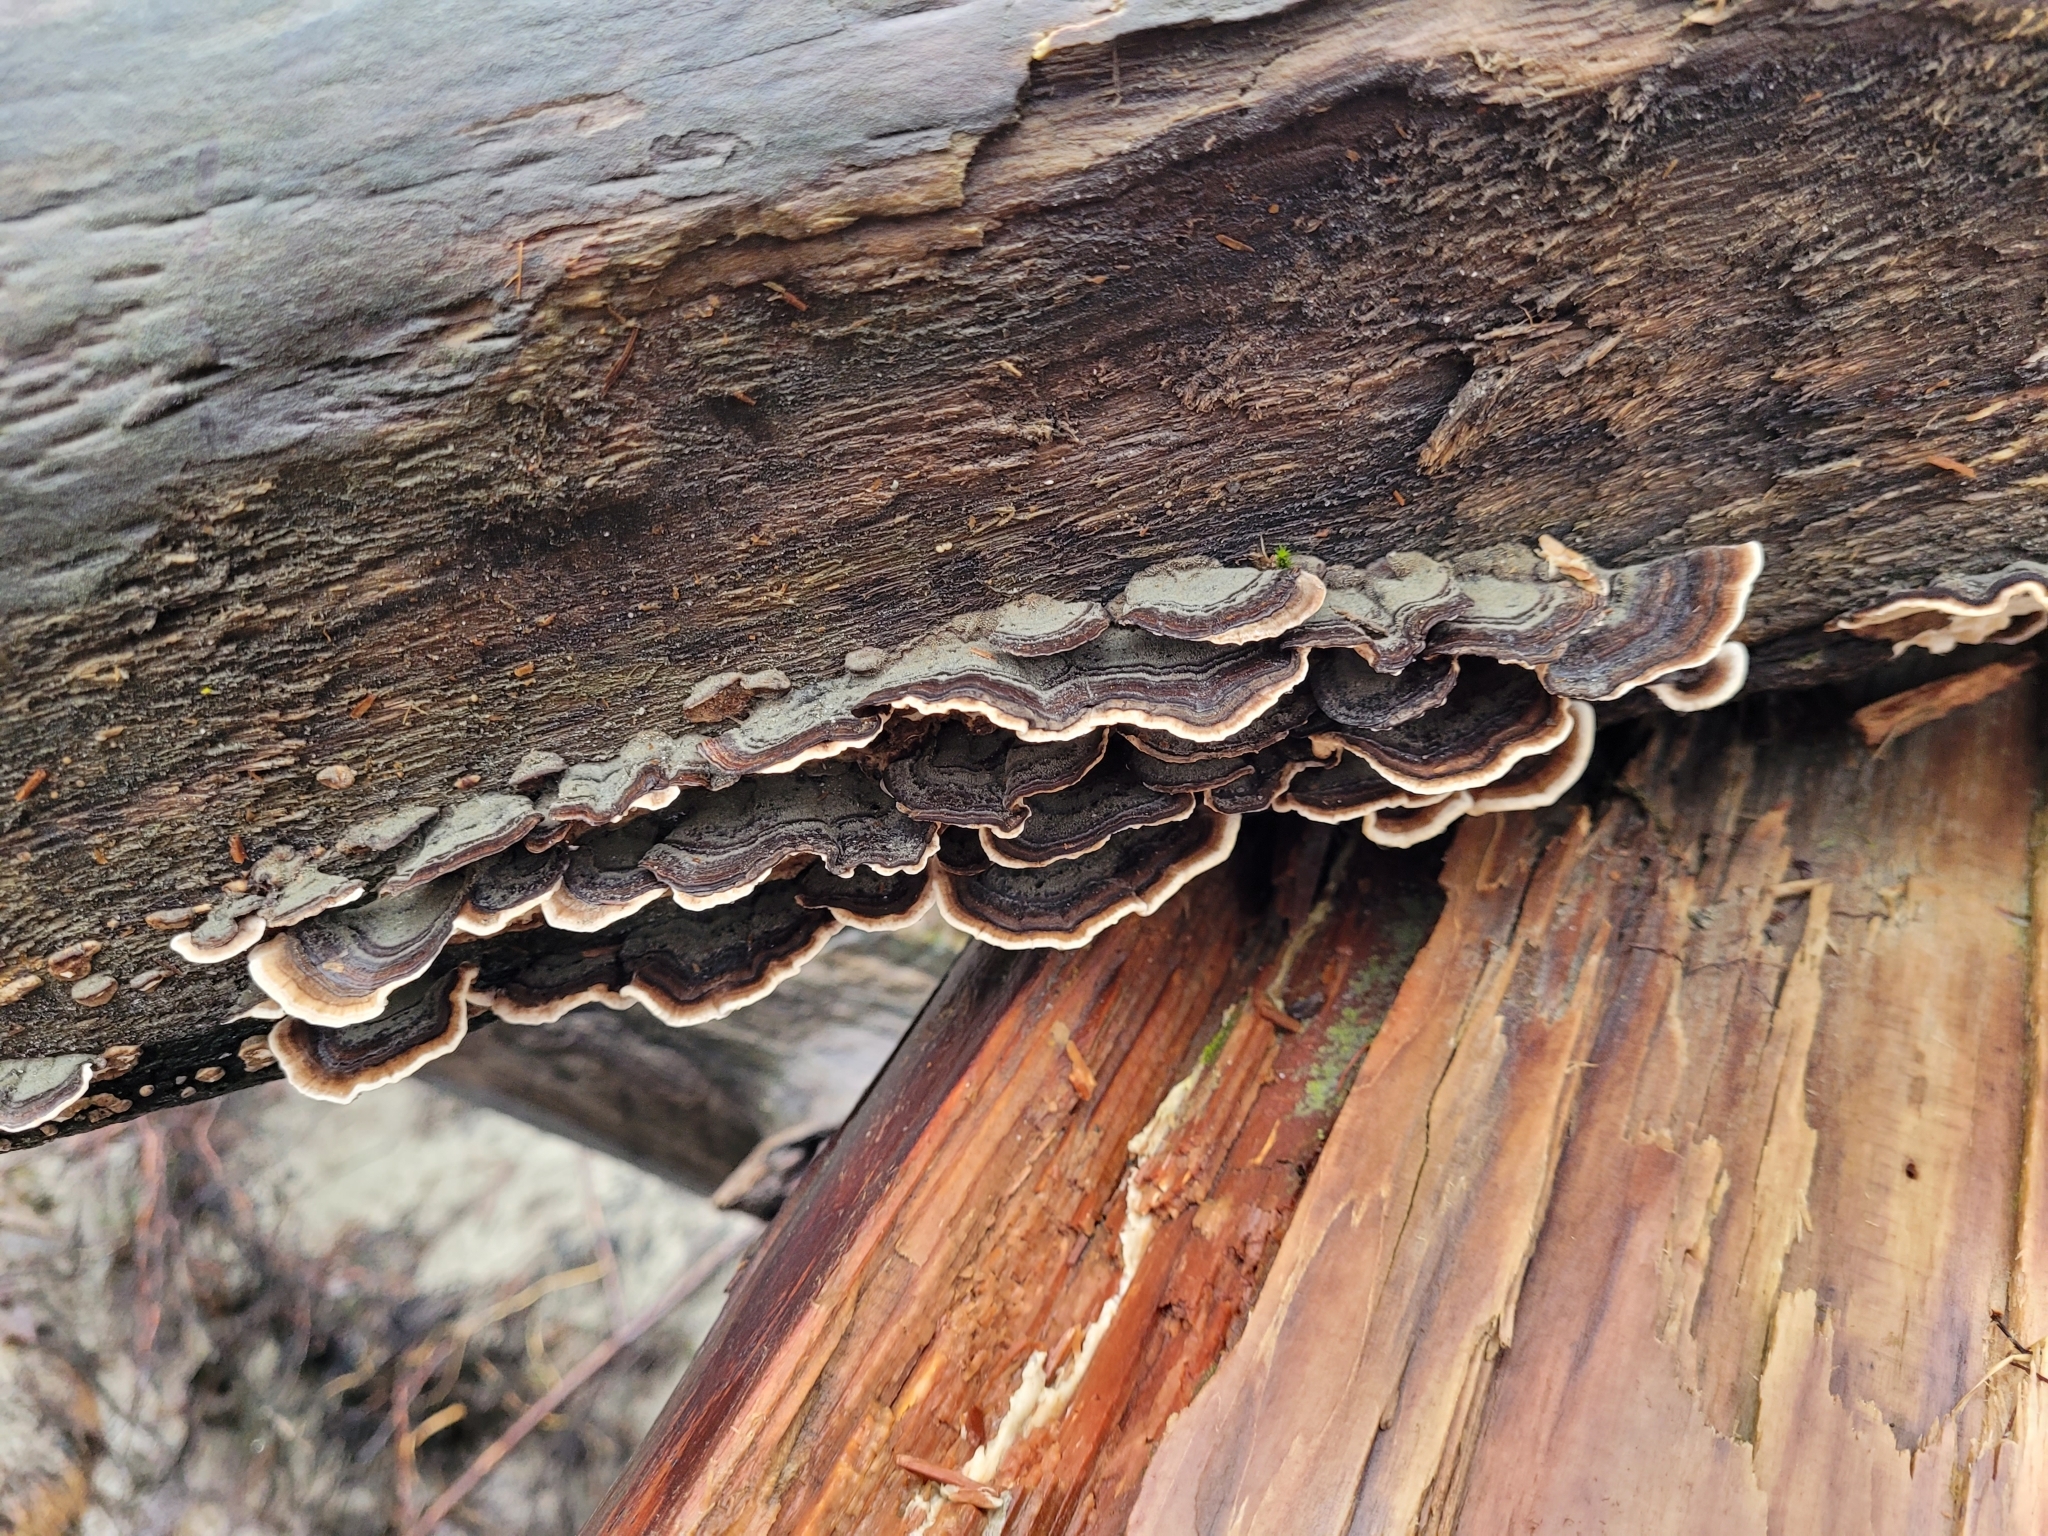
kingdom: Fungi
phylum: Basidiomycota
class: Agaricomycetes
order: Polyporales
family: Polyporaceae
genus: Trametes
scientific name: Trametes versicolor
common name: Turkeytail
